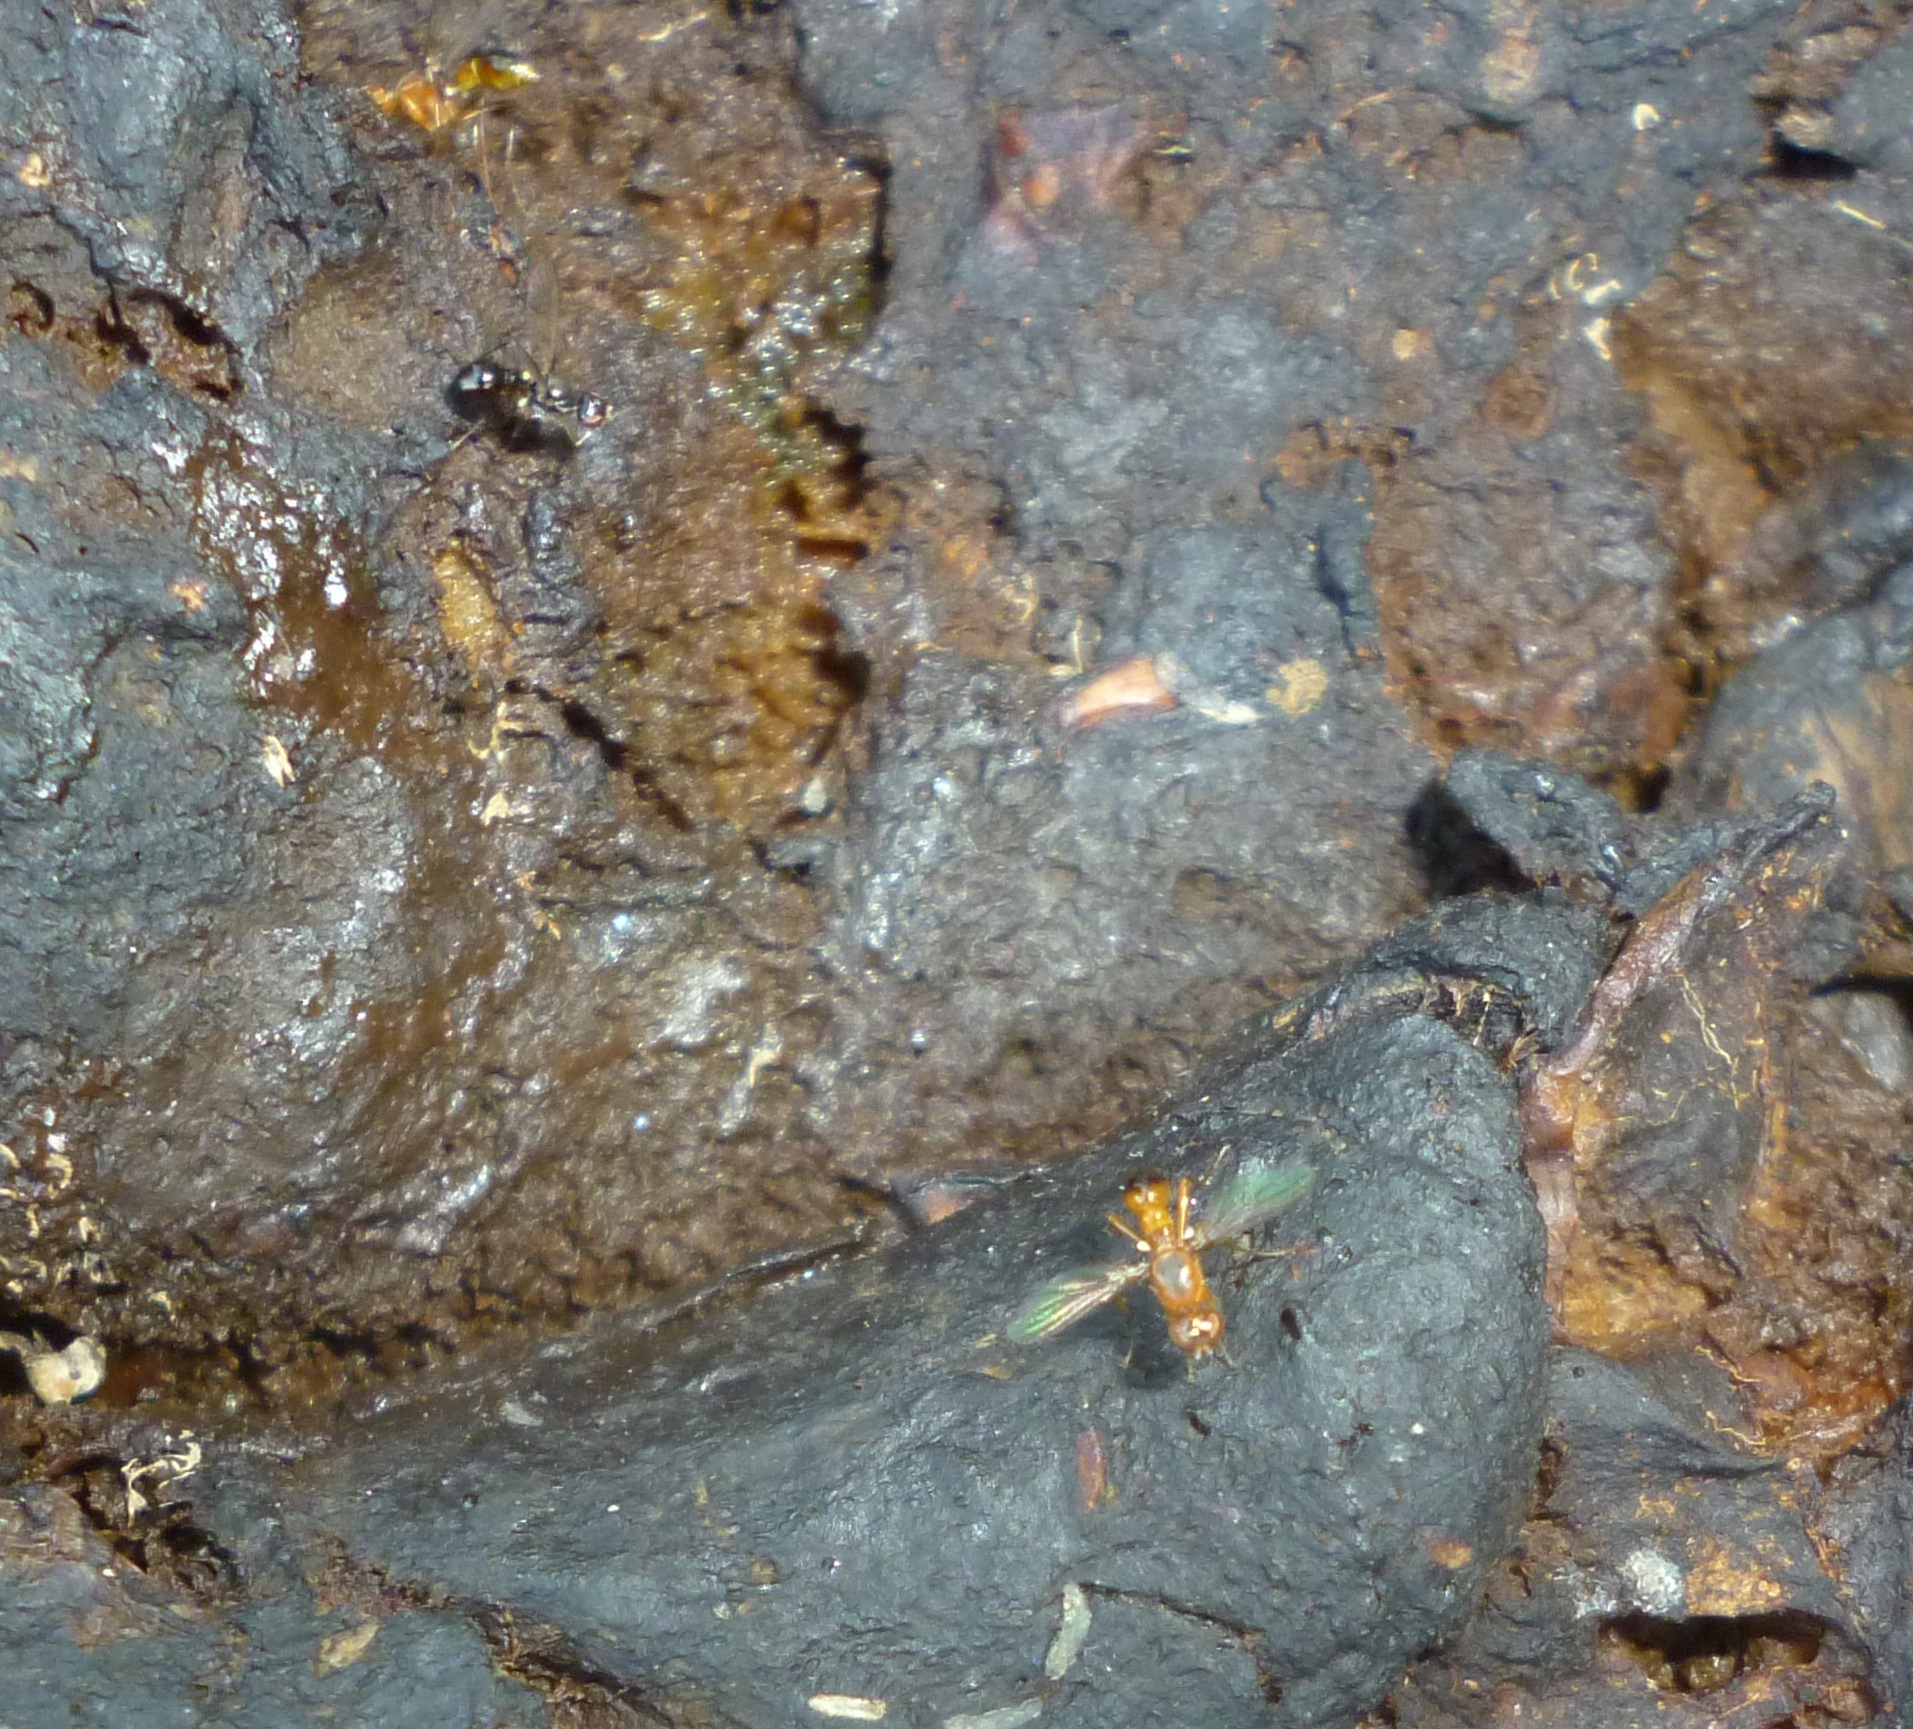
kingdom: Animalia
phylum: Arthropoda
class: Insecta
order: Diptera
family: Sepsidae
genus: Sepsis
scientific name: Sepsis lateralis
